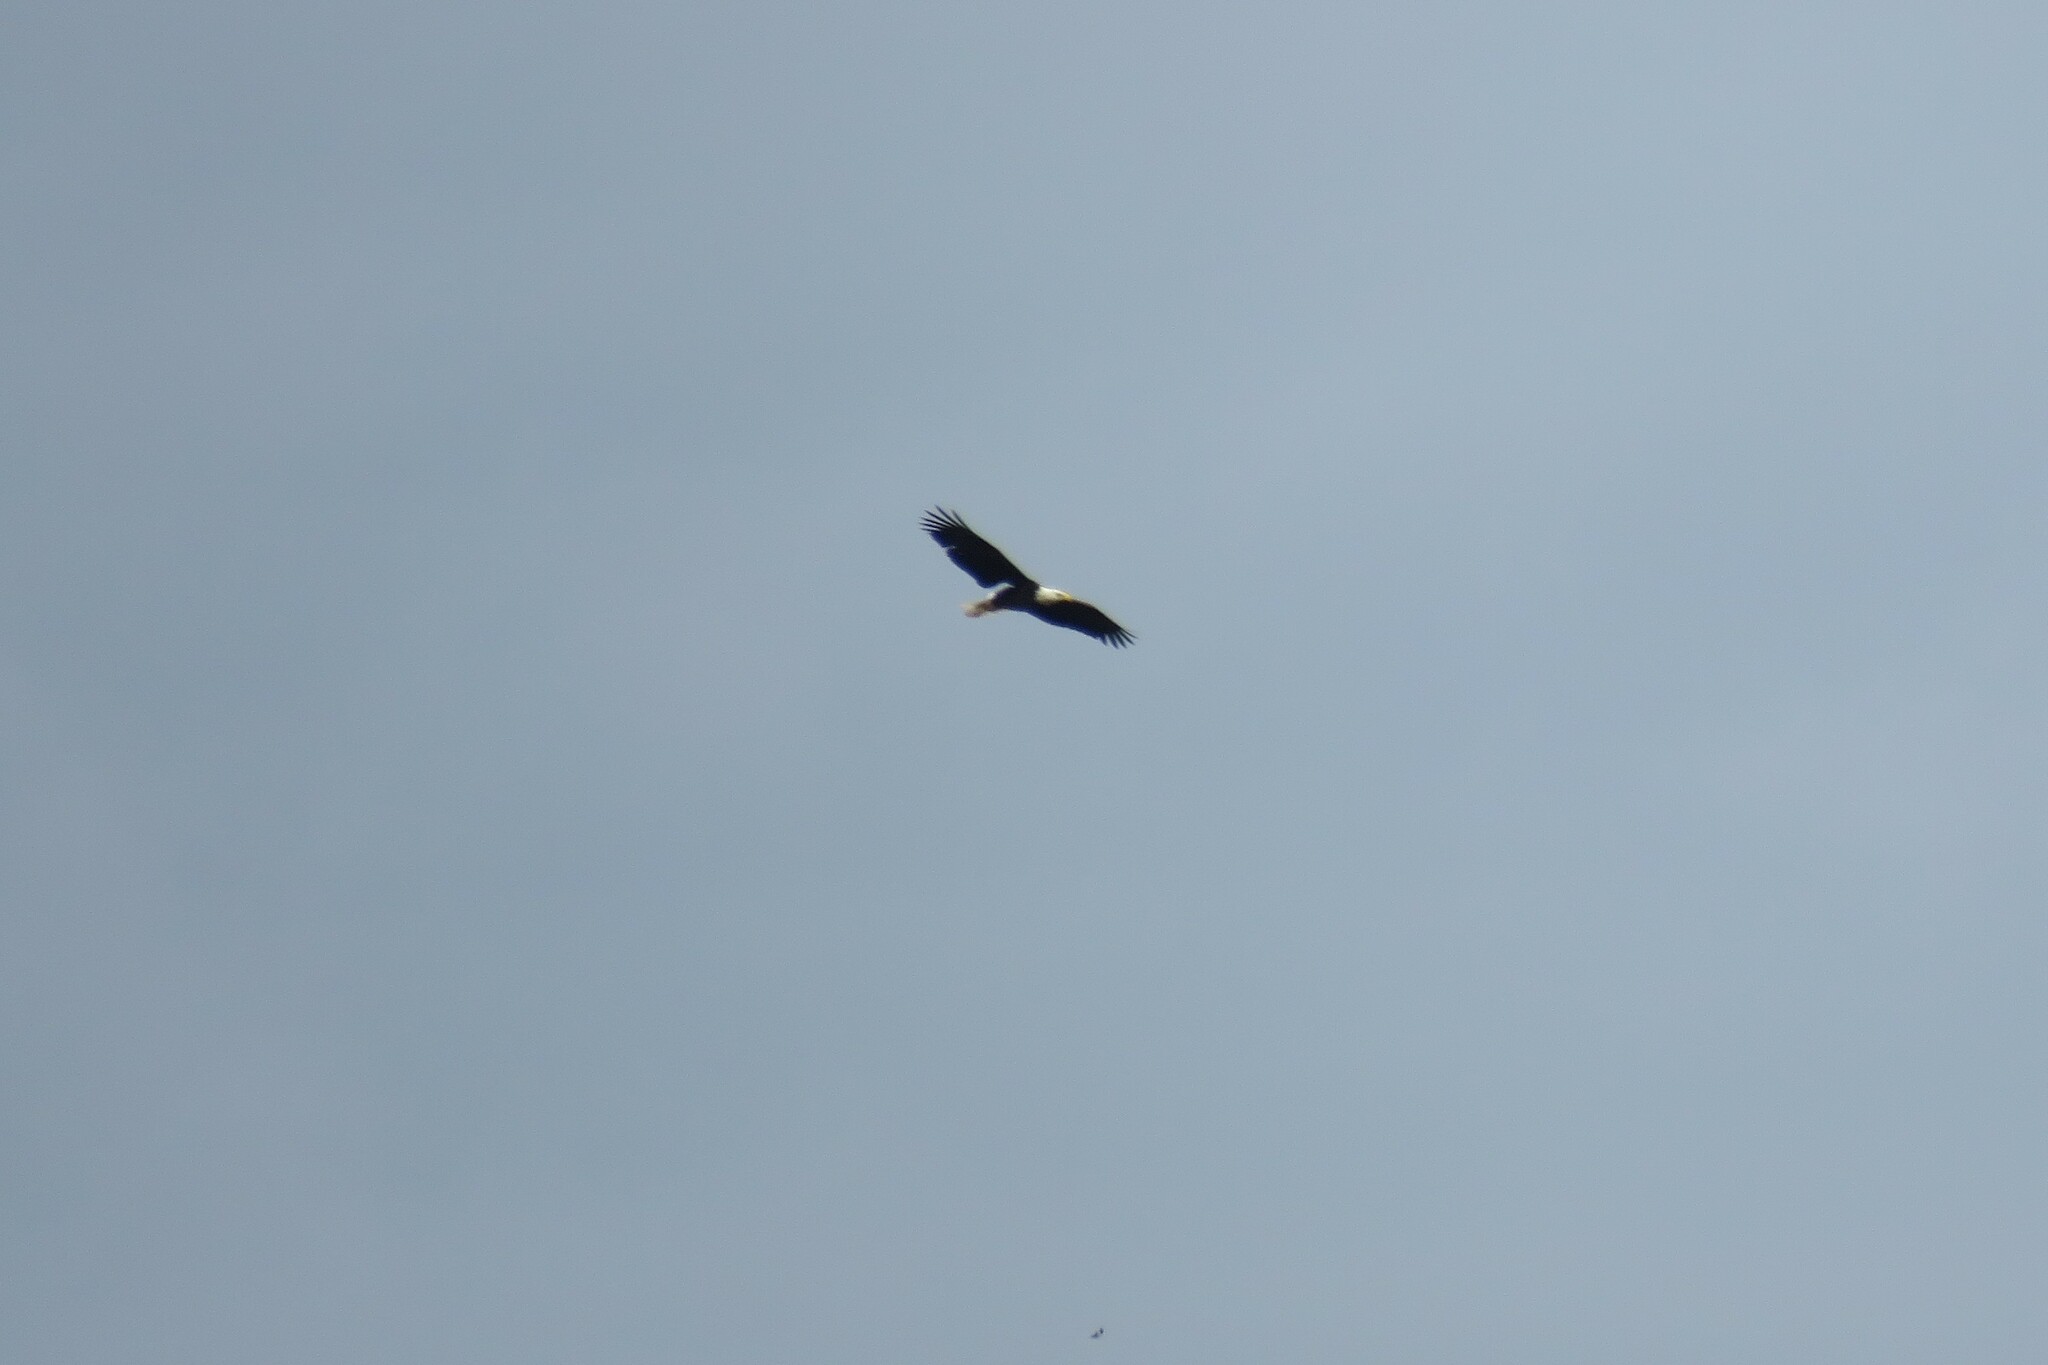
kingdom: Animalia
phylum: Chordata
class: Aves
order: Accipitriformes
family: Accipitridae
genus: Haliaeetus
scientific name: Haliaeetus leucocephalus
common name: Bald eagle
